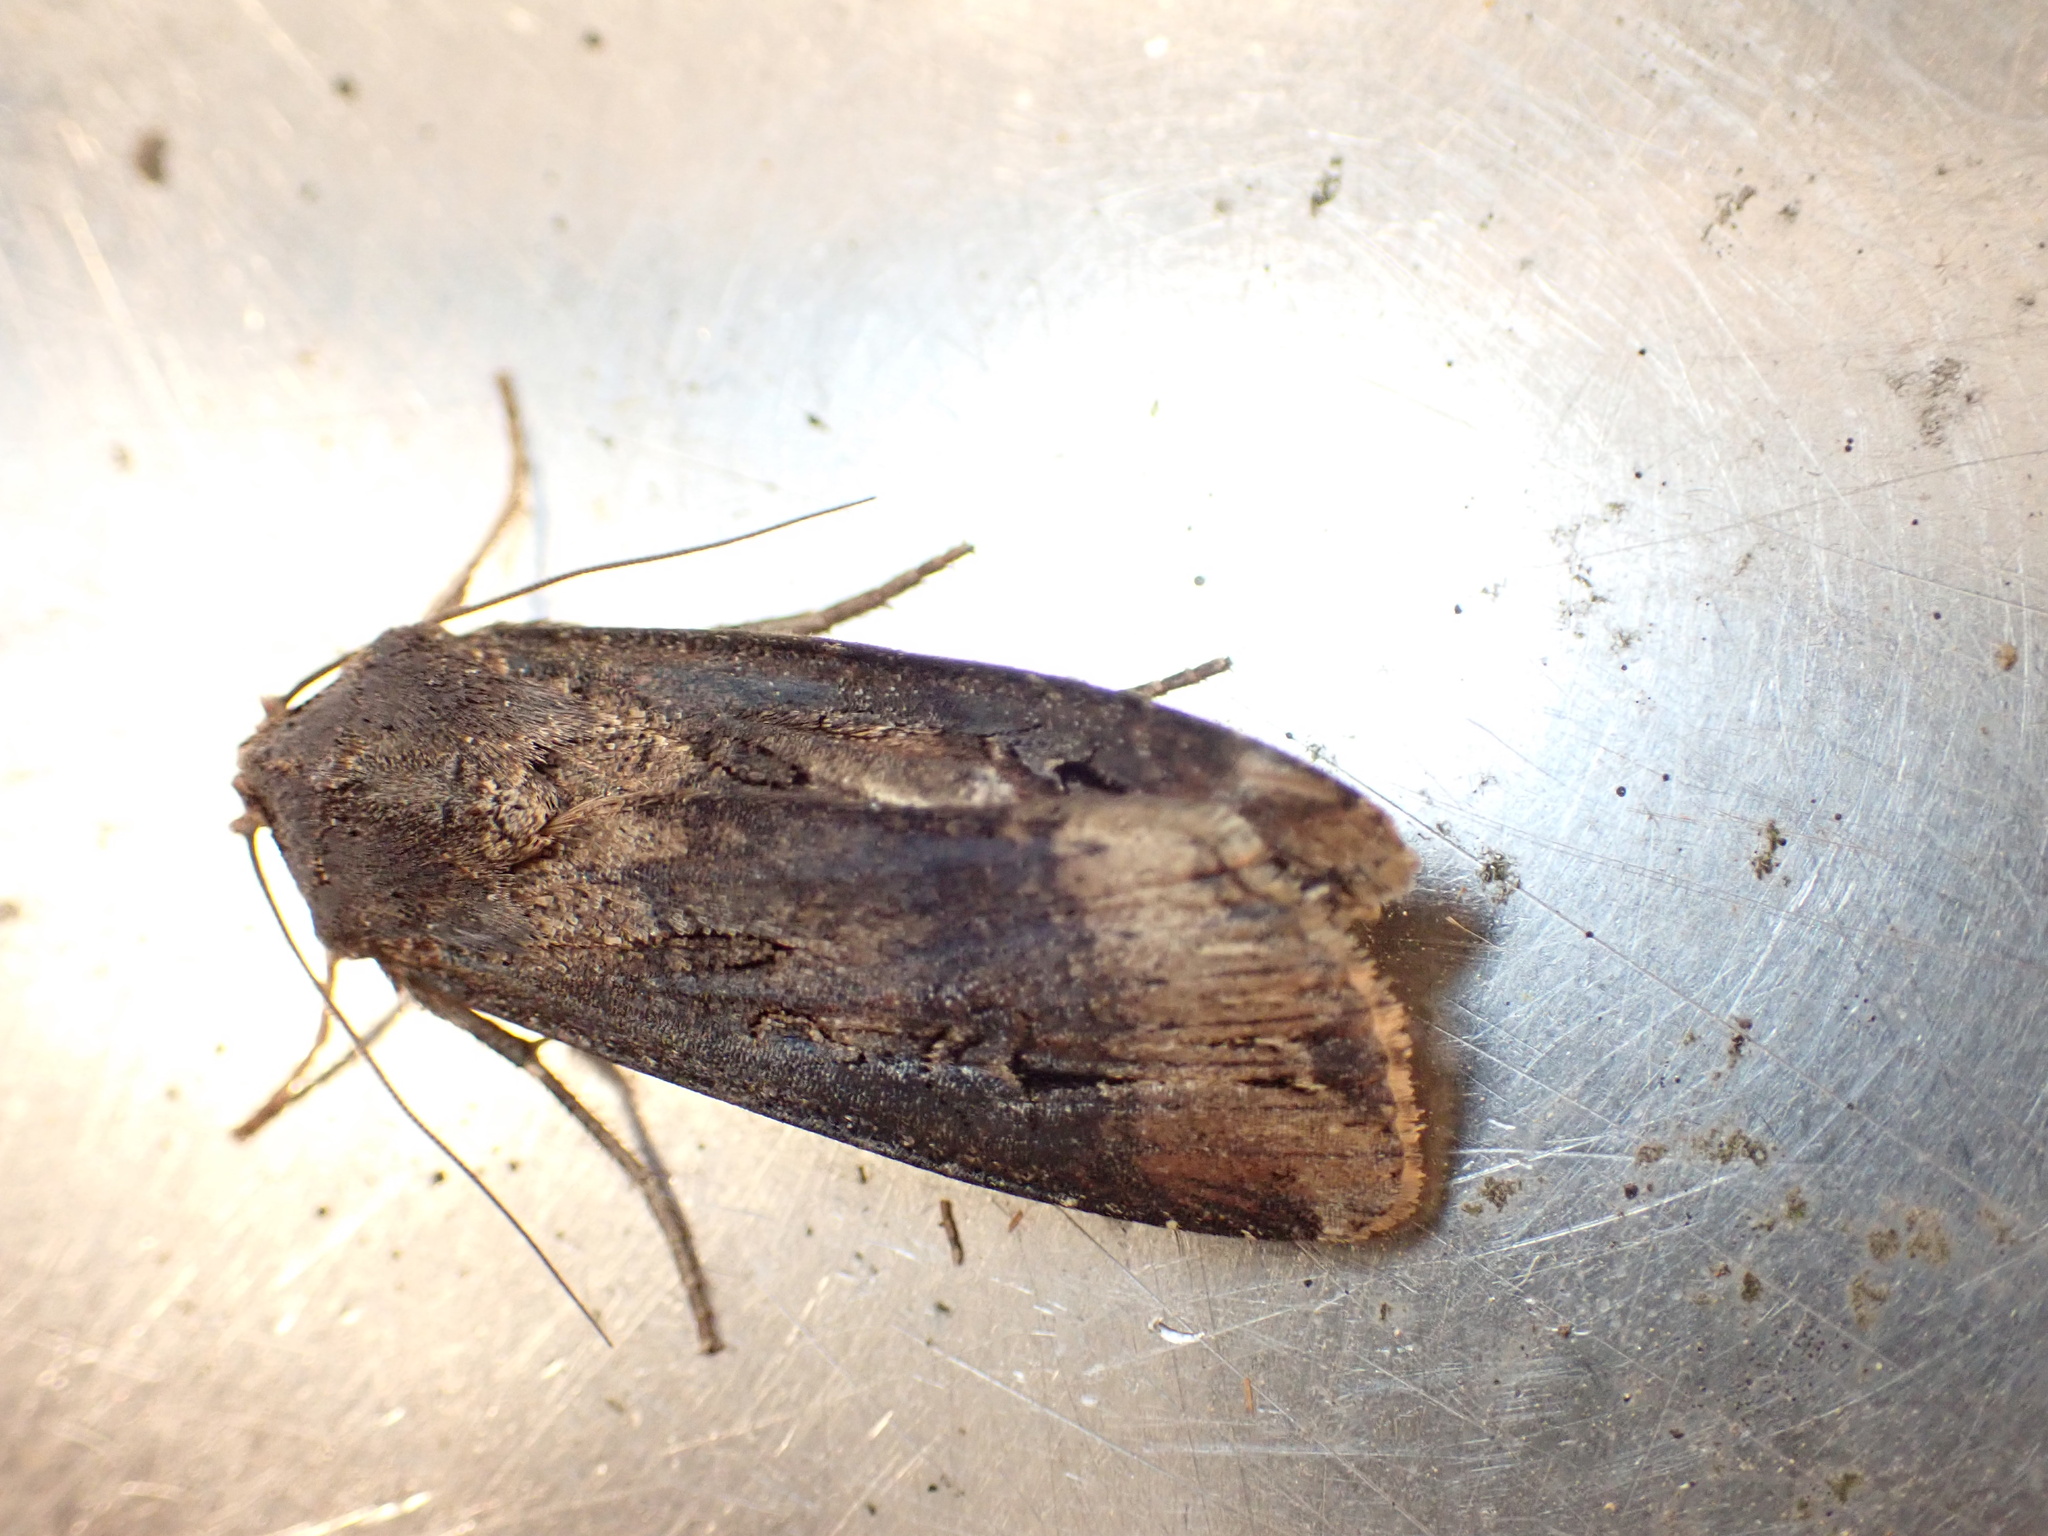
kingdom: Animalia
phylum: Arthropoda
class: Insecta
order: Lepidoptera
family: Noctuidae
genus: Agrotis
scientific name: Agrotis ipsilon
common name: Dark sword-grass
